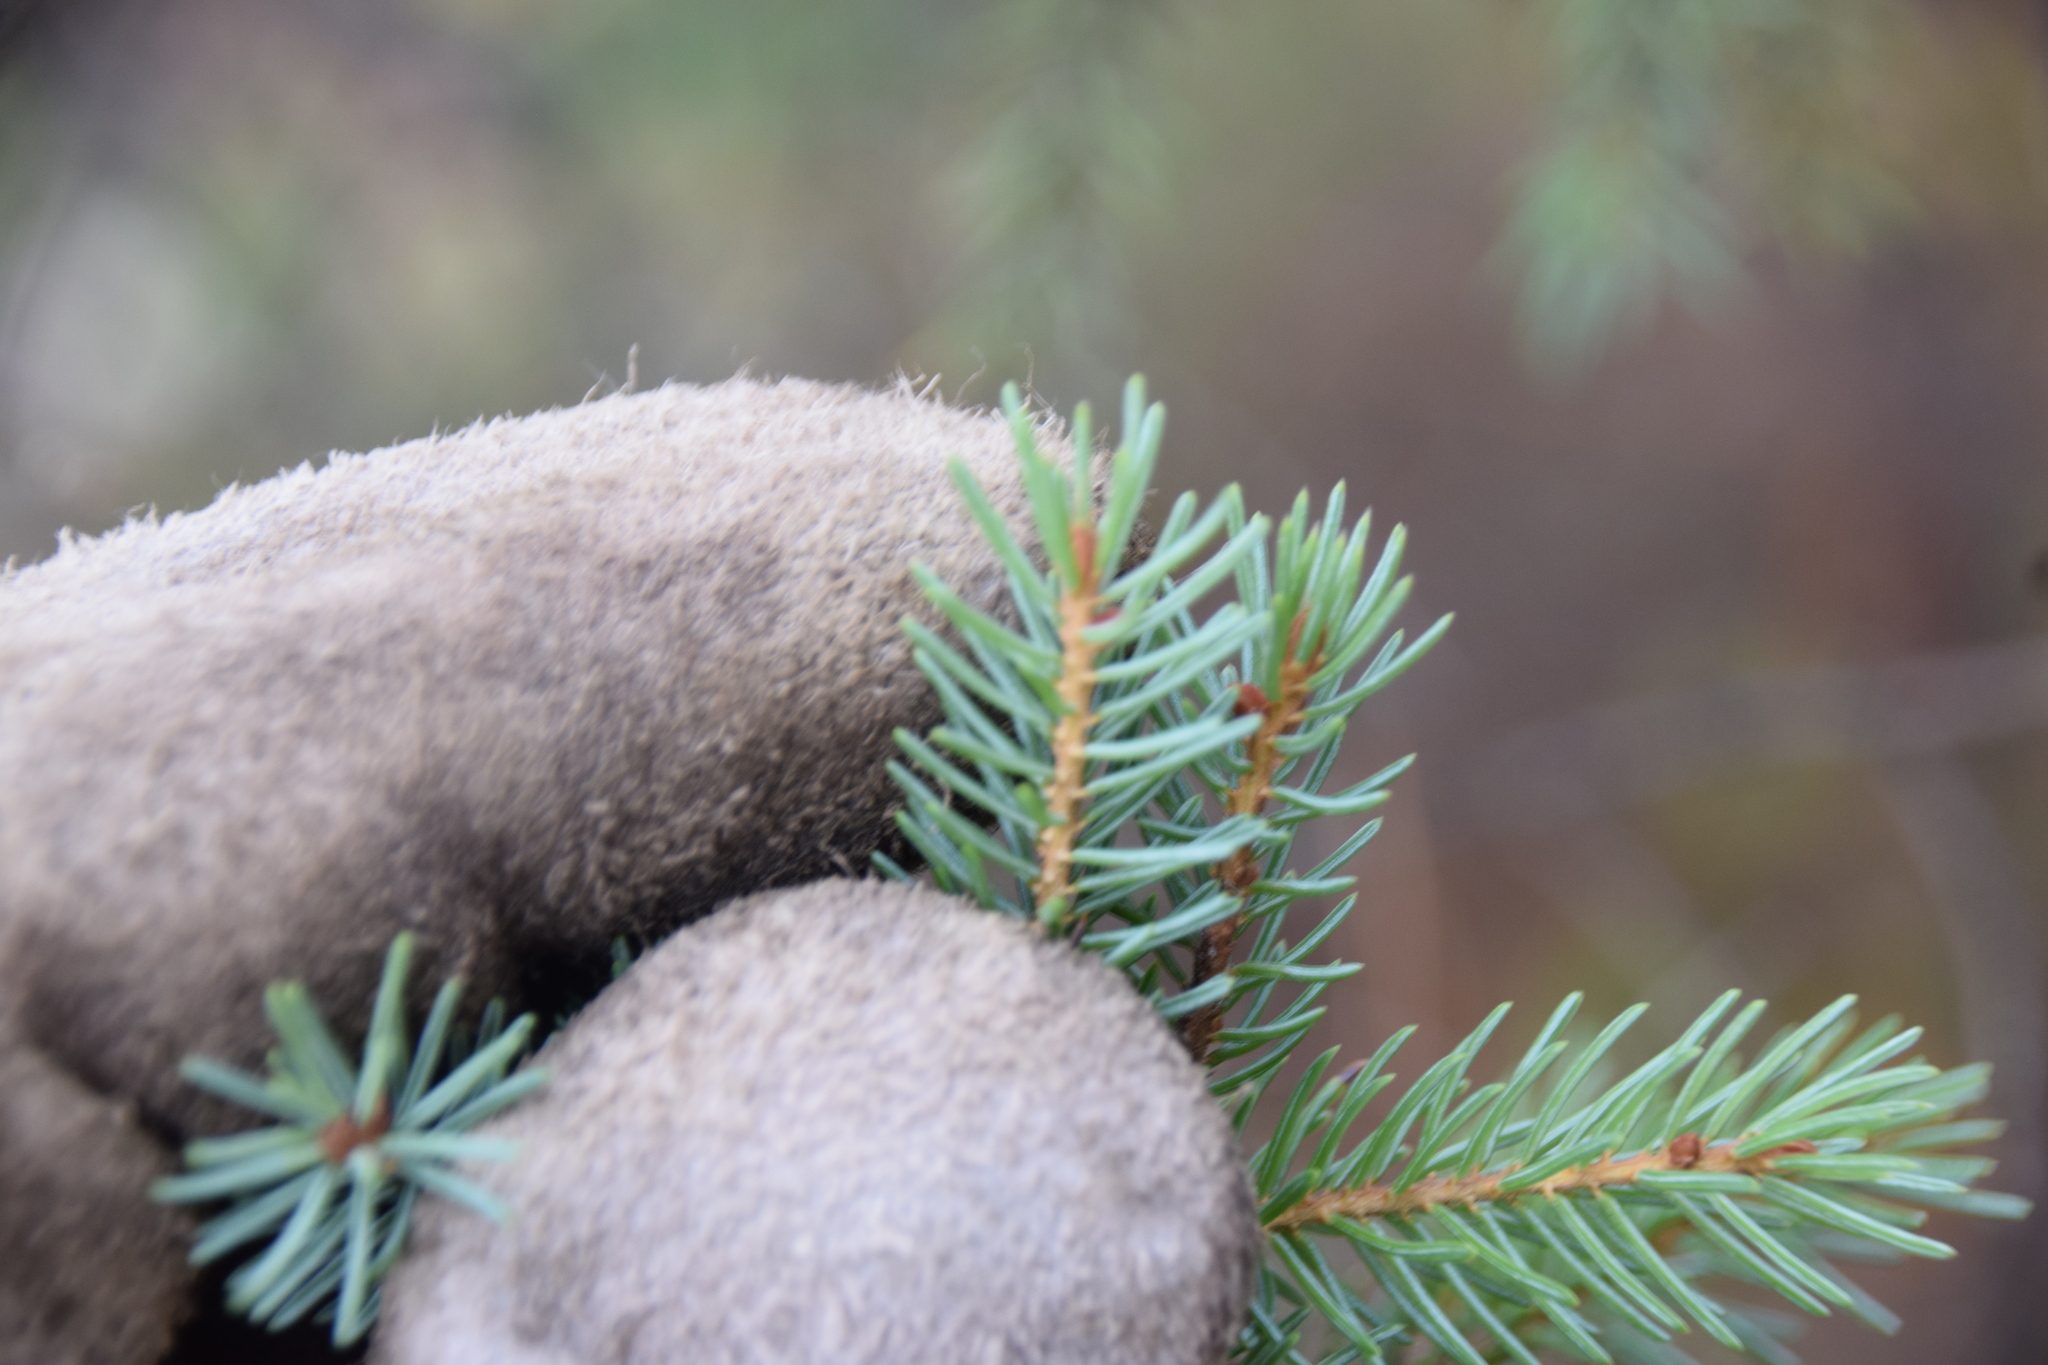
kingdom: Plantae
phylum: Tracheophyta
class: Pinopsida
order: Pinales
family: Pinaceae
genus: Picea
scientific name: Picea mariana
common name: Black spruce
